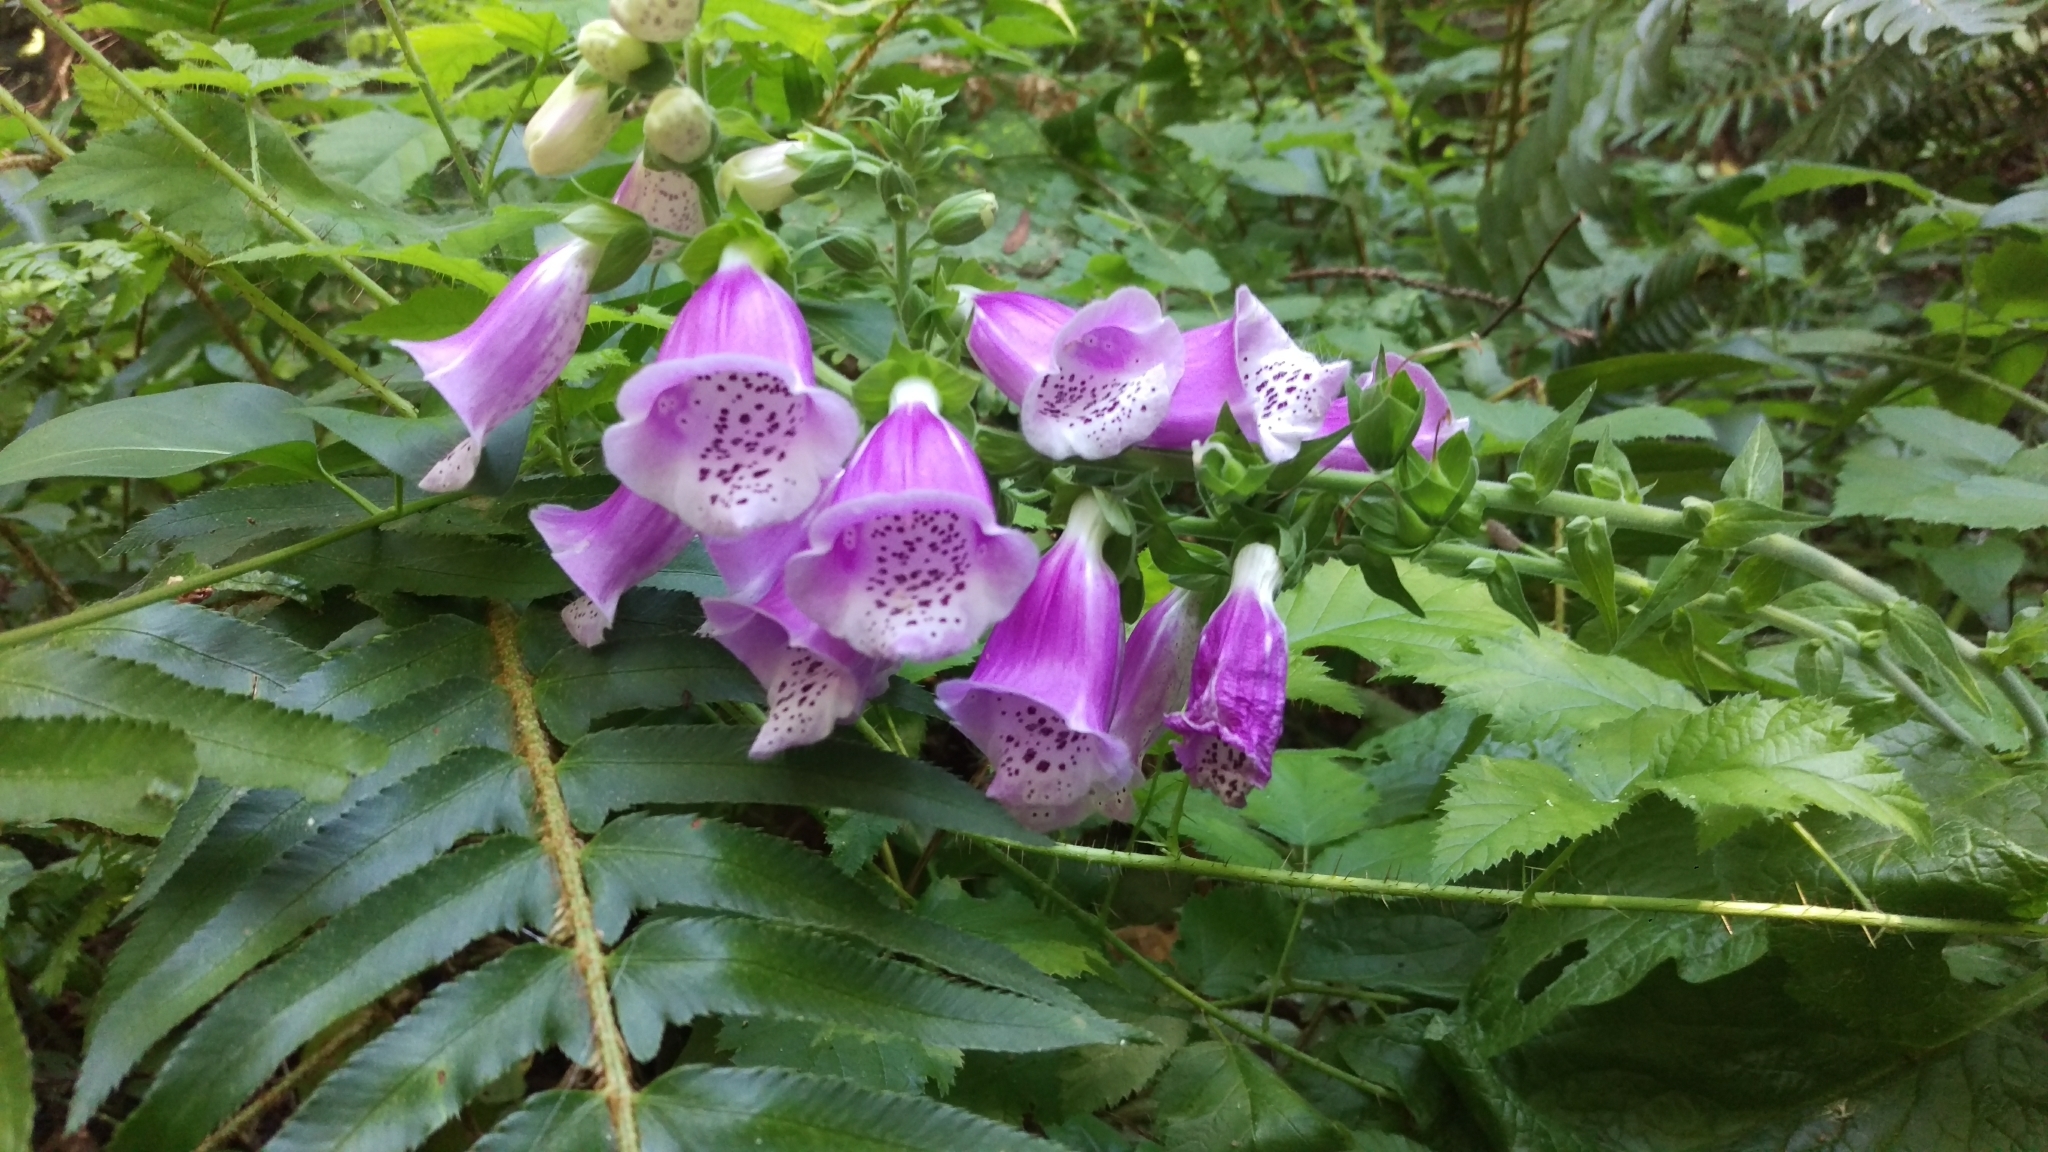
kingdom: Plantae
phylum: Tracheophyta
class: Magnoliopsida
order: Lamiales
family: Plantaginaceae
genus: Digitalis
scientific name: Digitalis purpurea
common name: Foxglove
